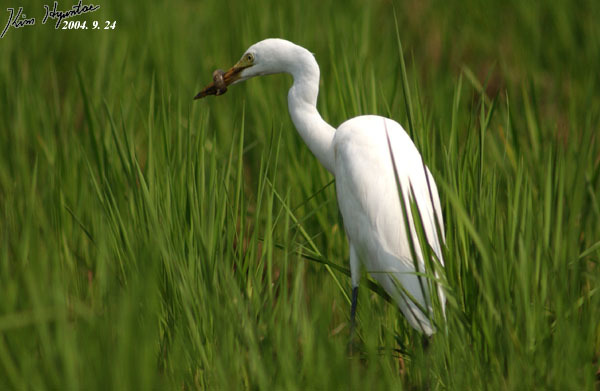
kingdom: Animalia
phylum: Chordata
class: Aves
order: Pelecaniformes
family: Ardeidae
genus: Egretta
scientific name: Egretta intermedia
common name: Intermediate egret
